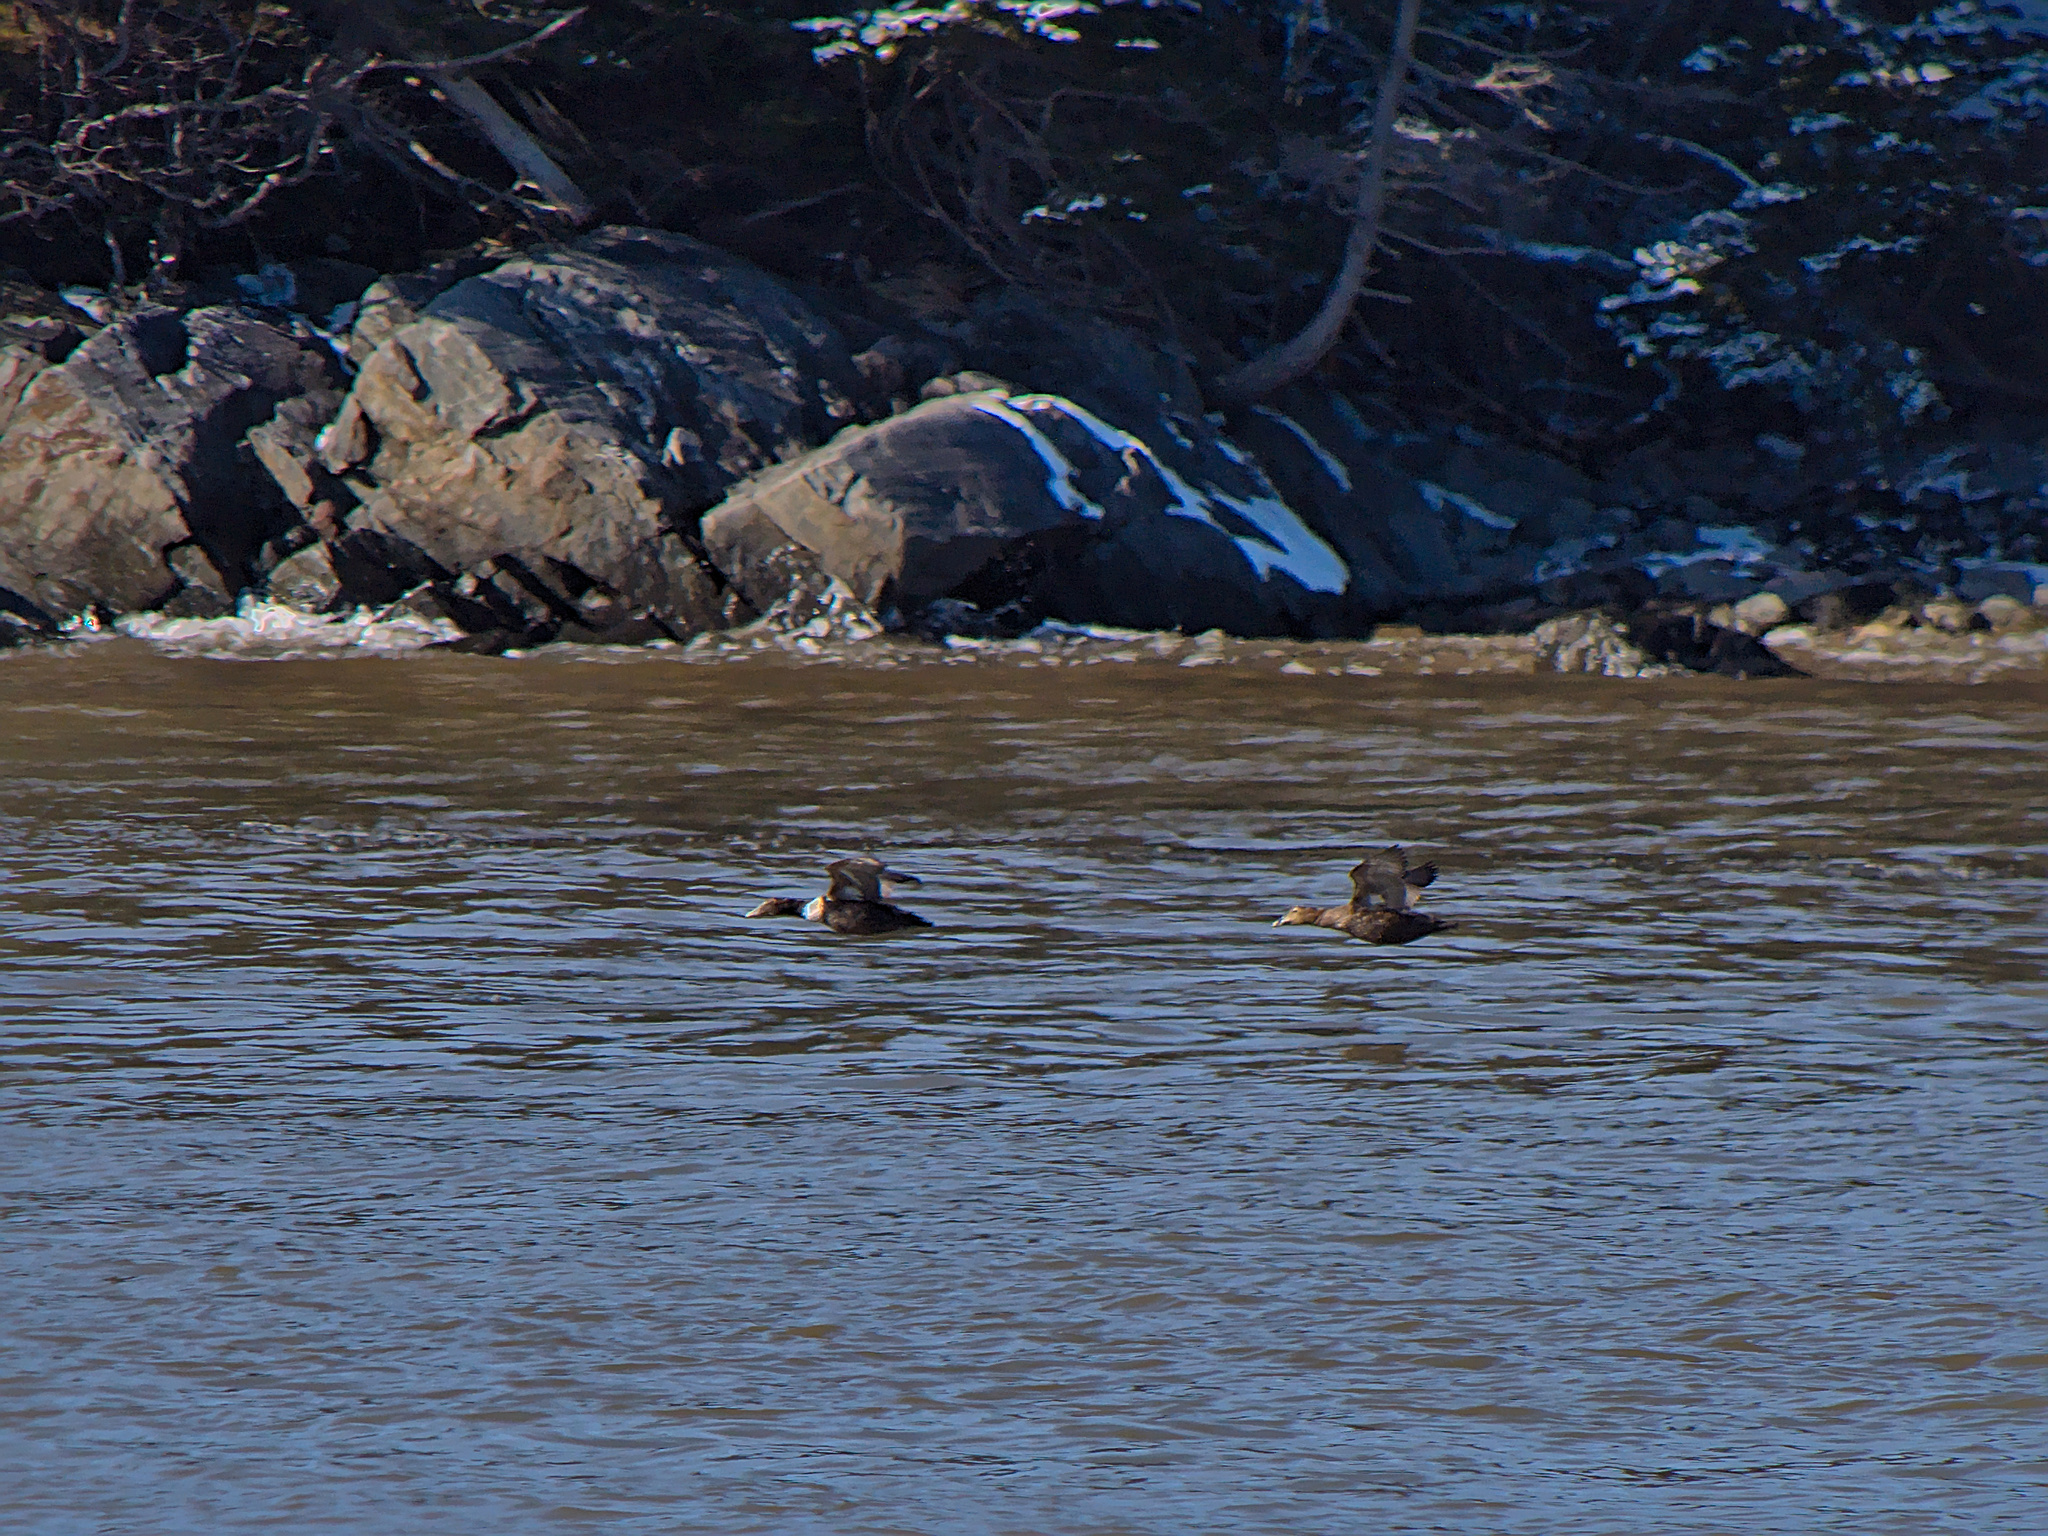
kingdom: Animalia
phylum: Chordata
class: Aves
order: Anseriformes
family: Anatidae
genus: Somateria
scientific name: Somateria mollissima
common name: Common eider
